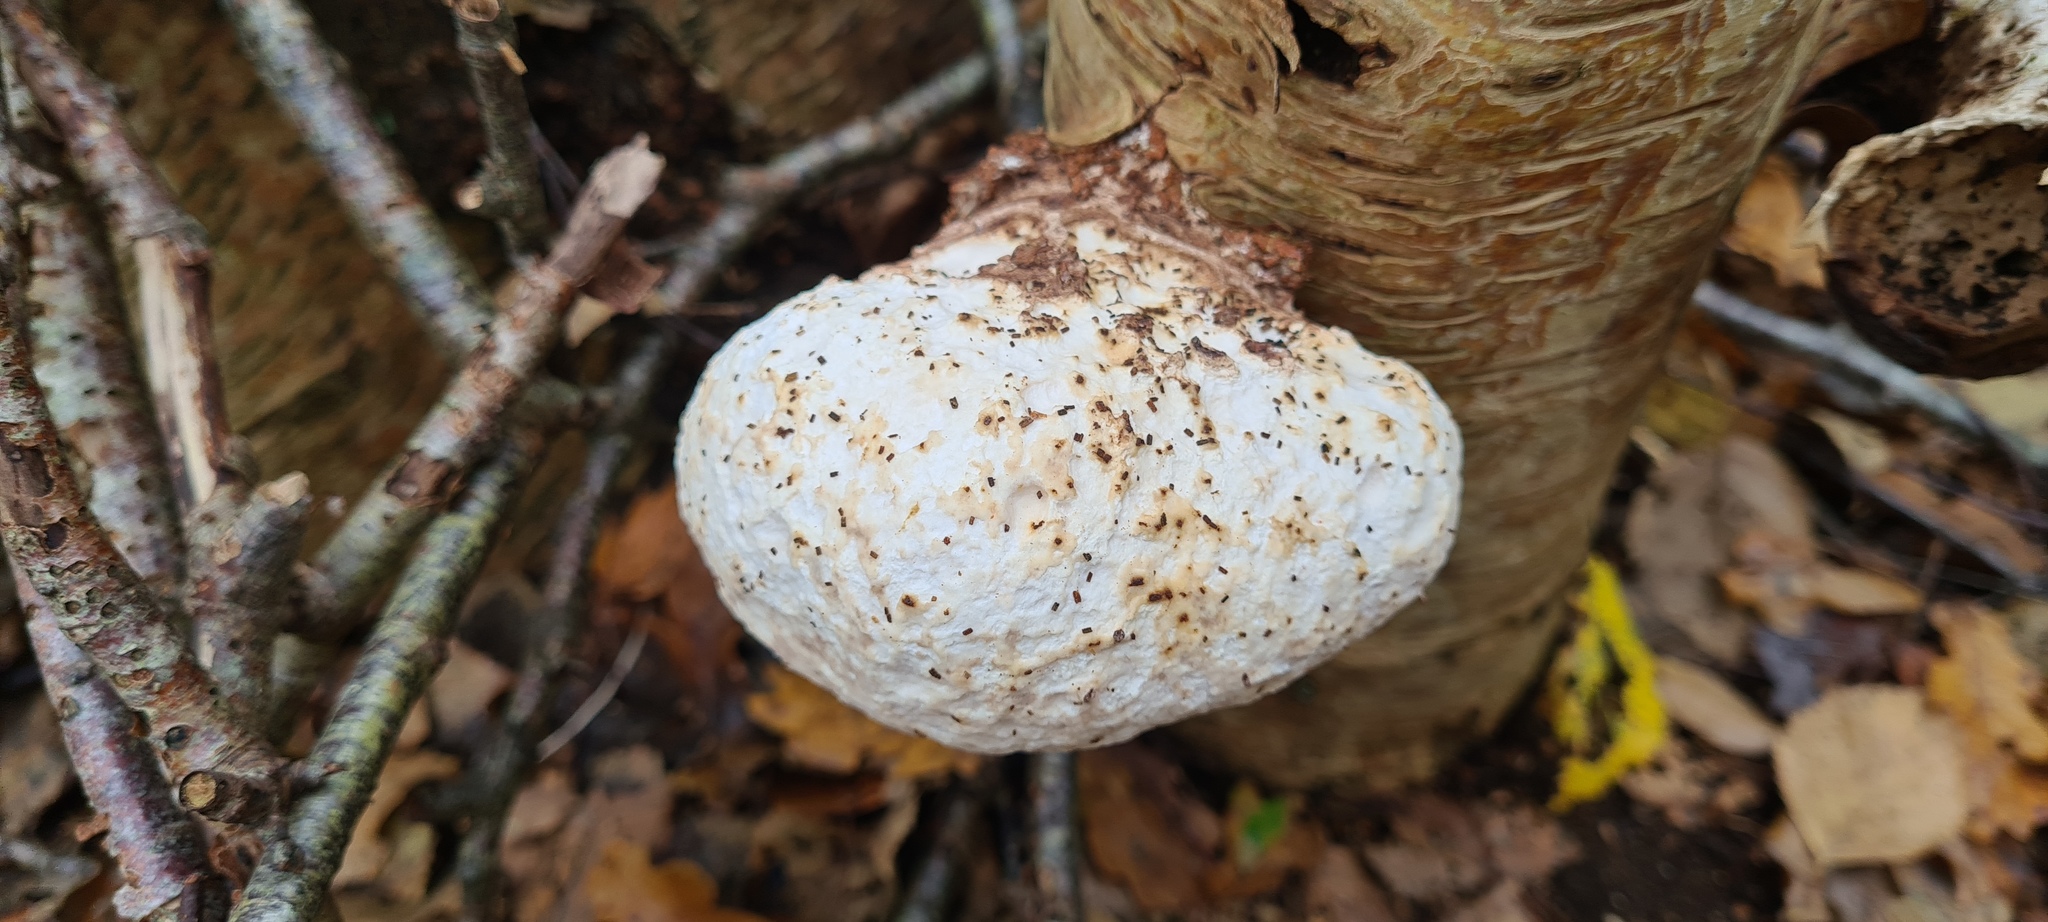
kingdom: Fungi
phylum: Basidiomycota
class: Agaricomycetes
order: Polyporales
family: Fomitopsidaceae
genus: Fomitopsis
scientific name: Fomitopsis betulina
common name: Birch polypore
